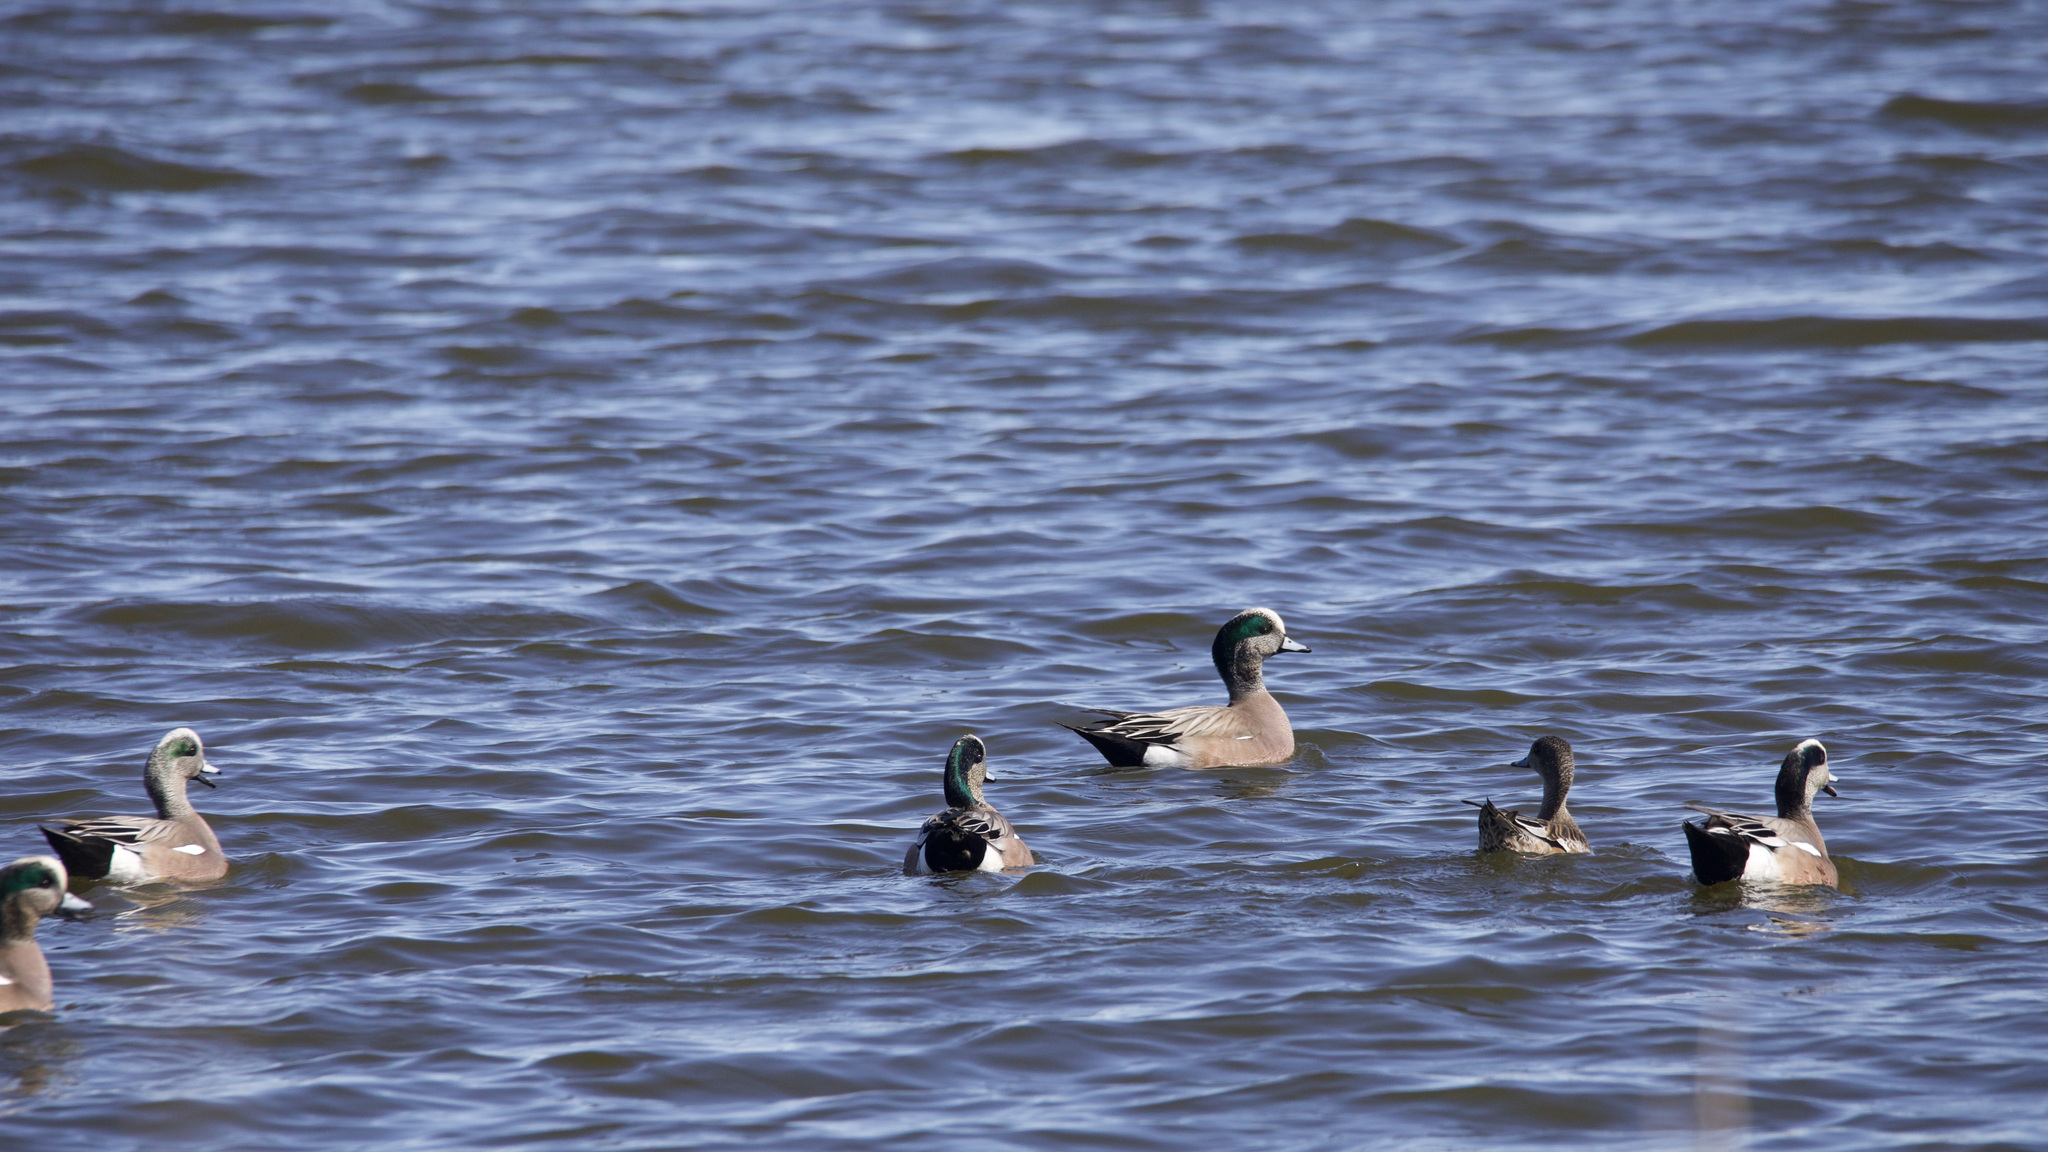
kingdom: Animalia
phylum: Chordata
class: Aves
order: Anseriformes
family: Anatidae
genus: Mareca
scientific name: Mareca americana
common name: American wigeon
